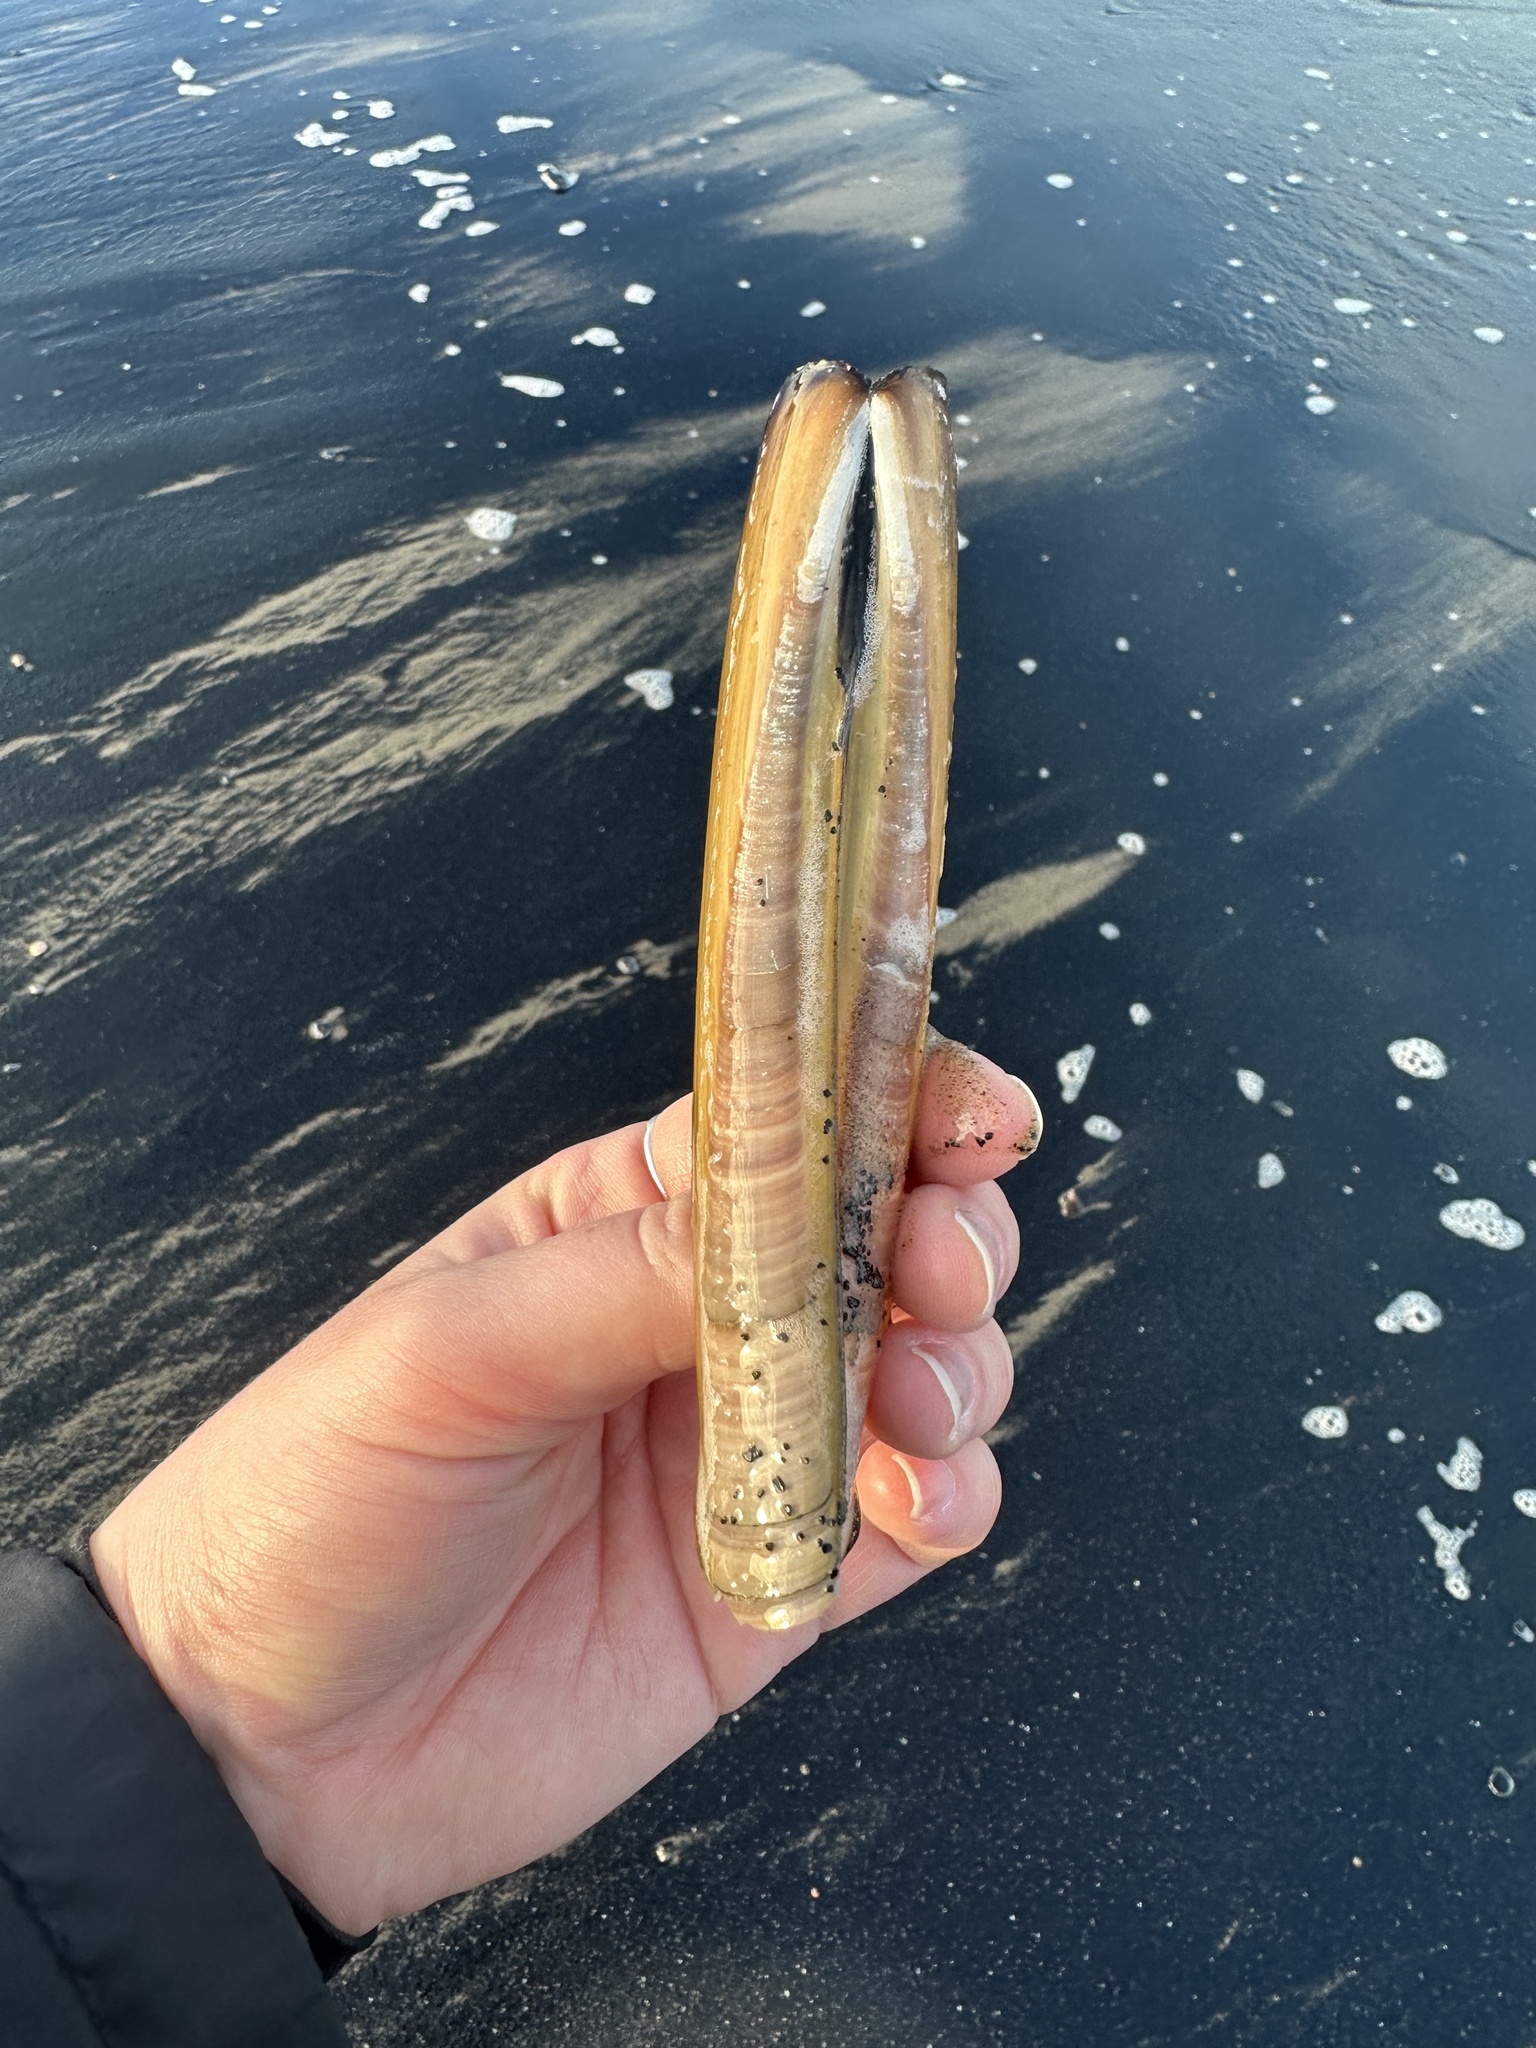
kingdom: Animalia
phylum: Mollusca
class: Bivalvia
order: Adapedonta
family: Pharidae
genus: Ensis
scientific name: Ensis leei
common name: American jack knife clam
